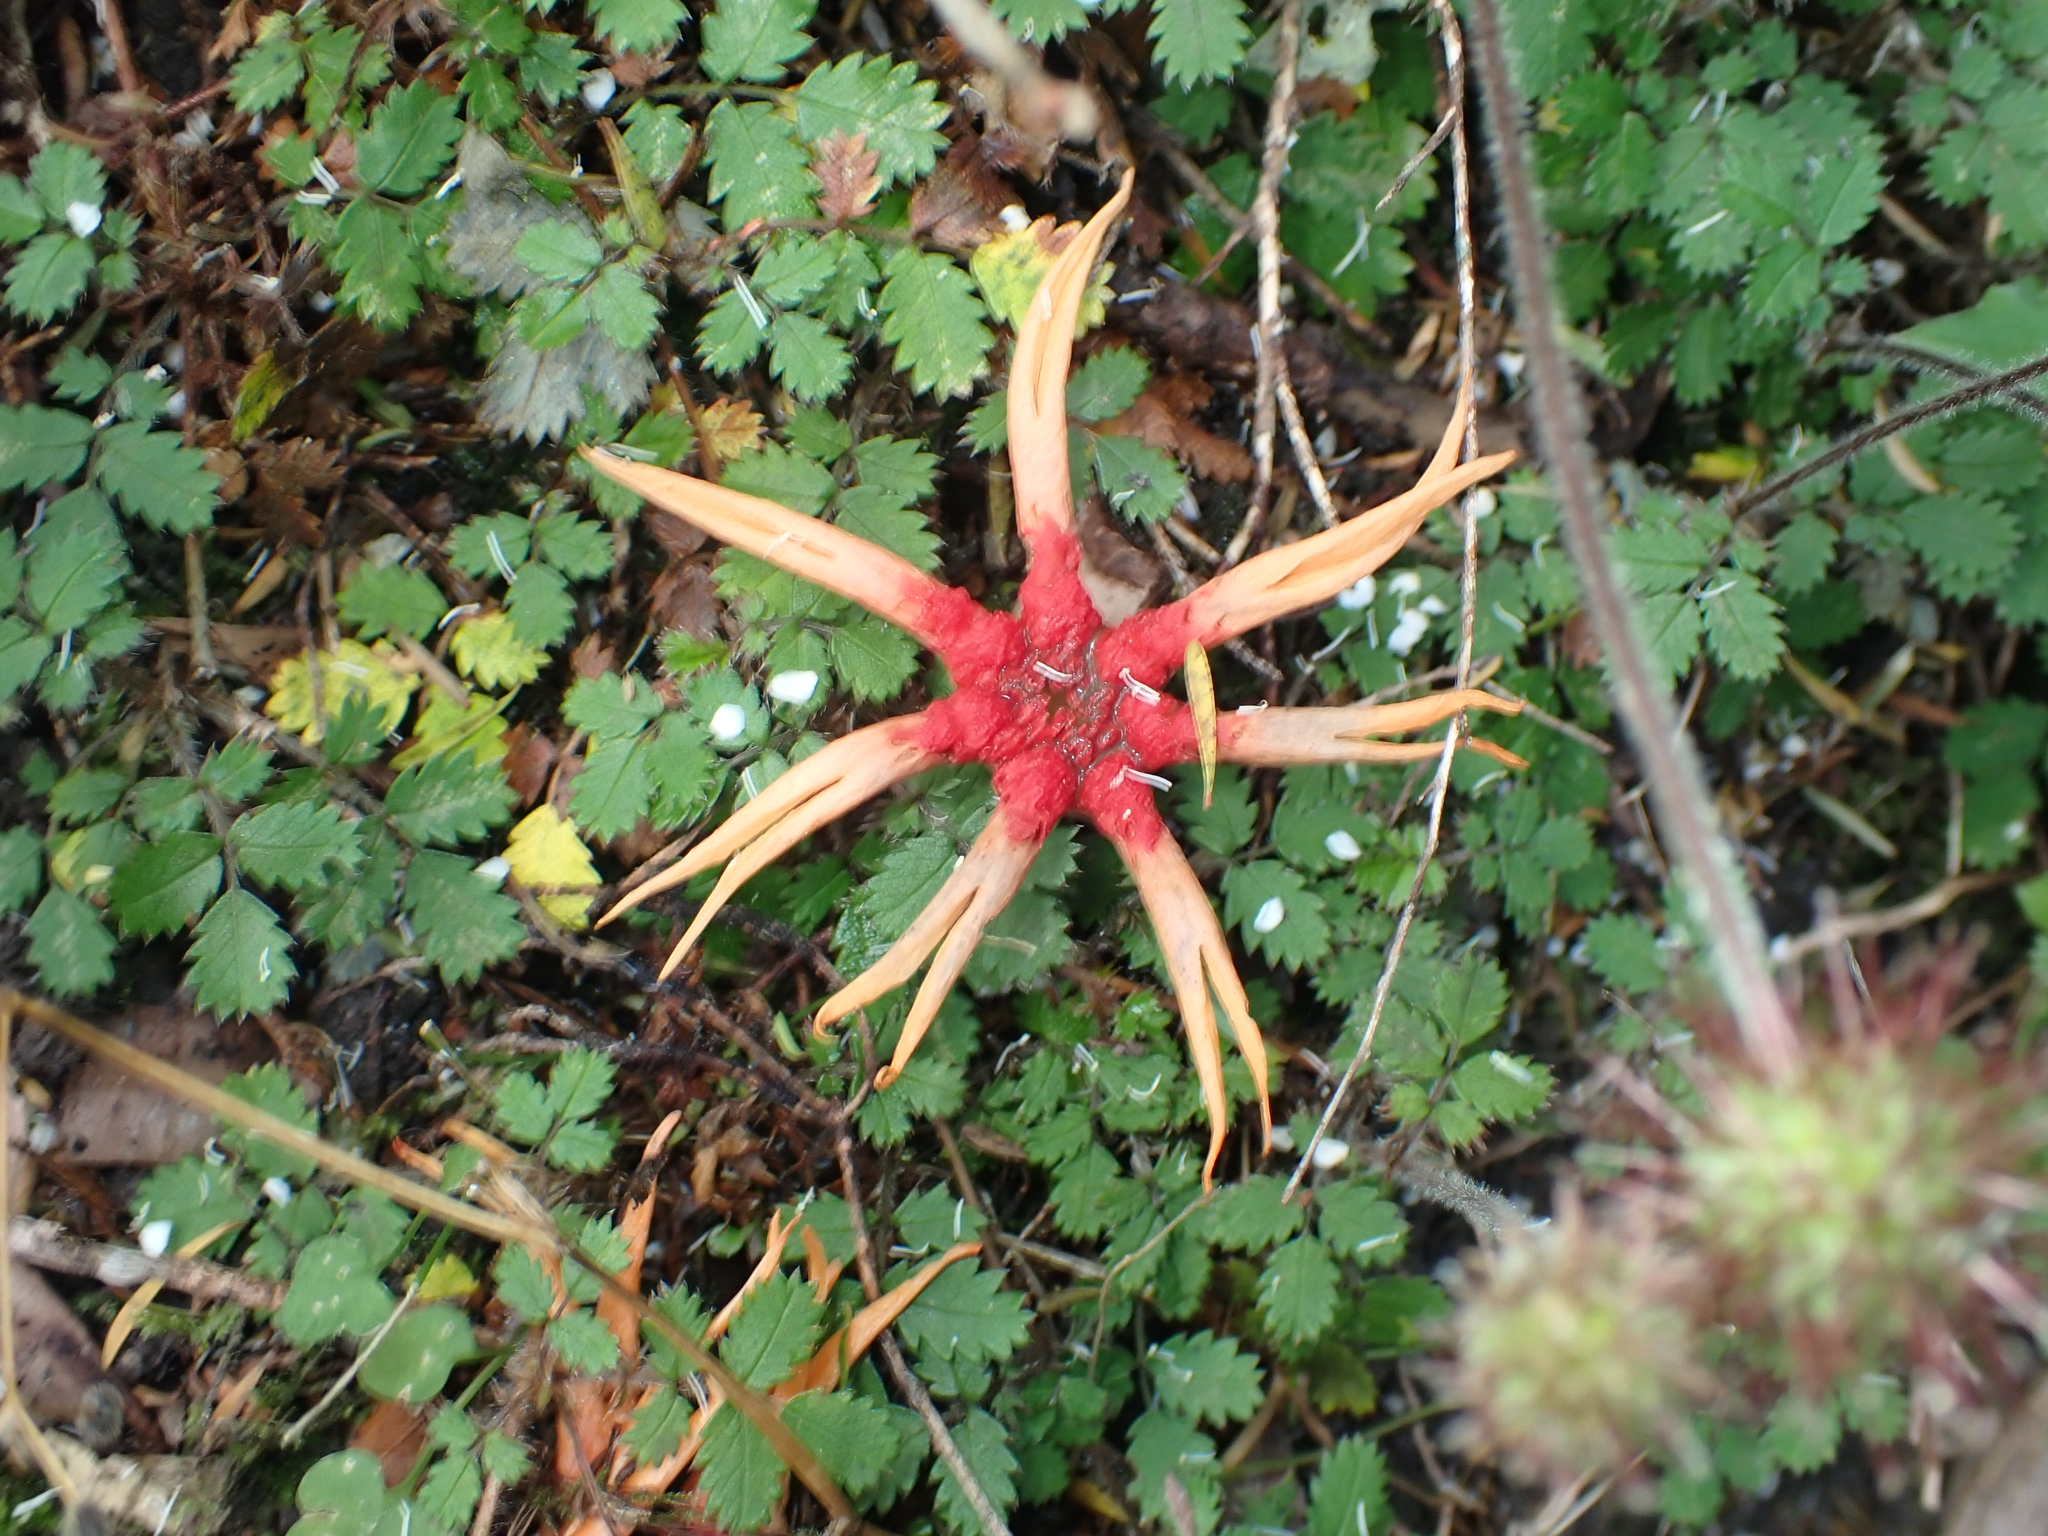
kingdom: Fungi
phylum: Basidiomycota
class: Agaricomycetes
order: Phallales
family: Phallaceae
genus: Aseroe
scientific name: Aseroe rubra
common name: Starfish fungus
